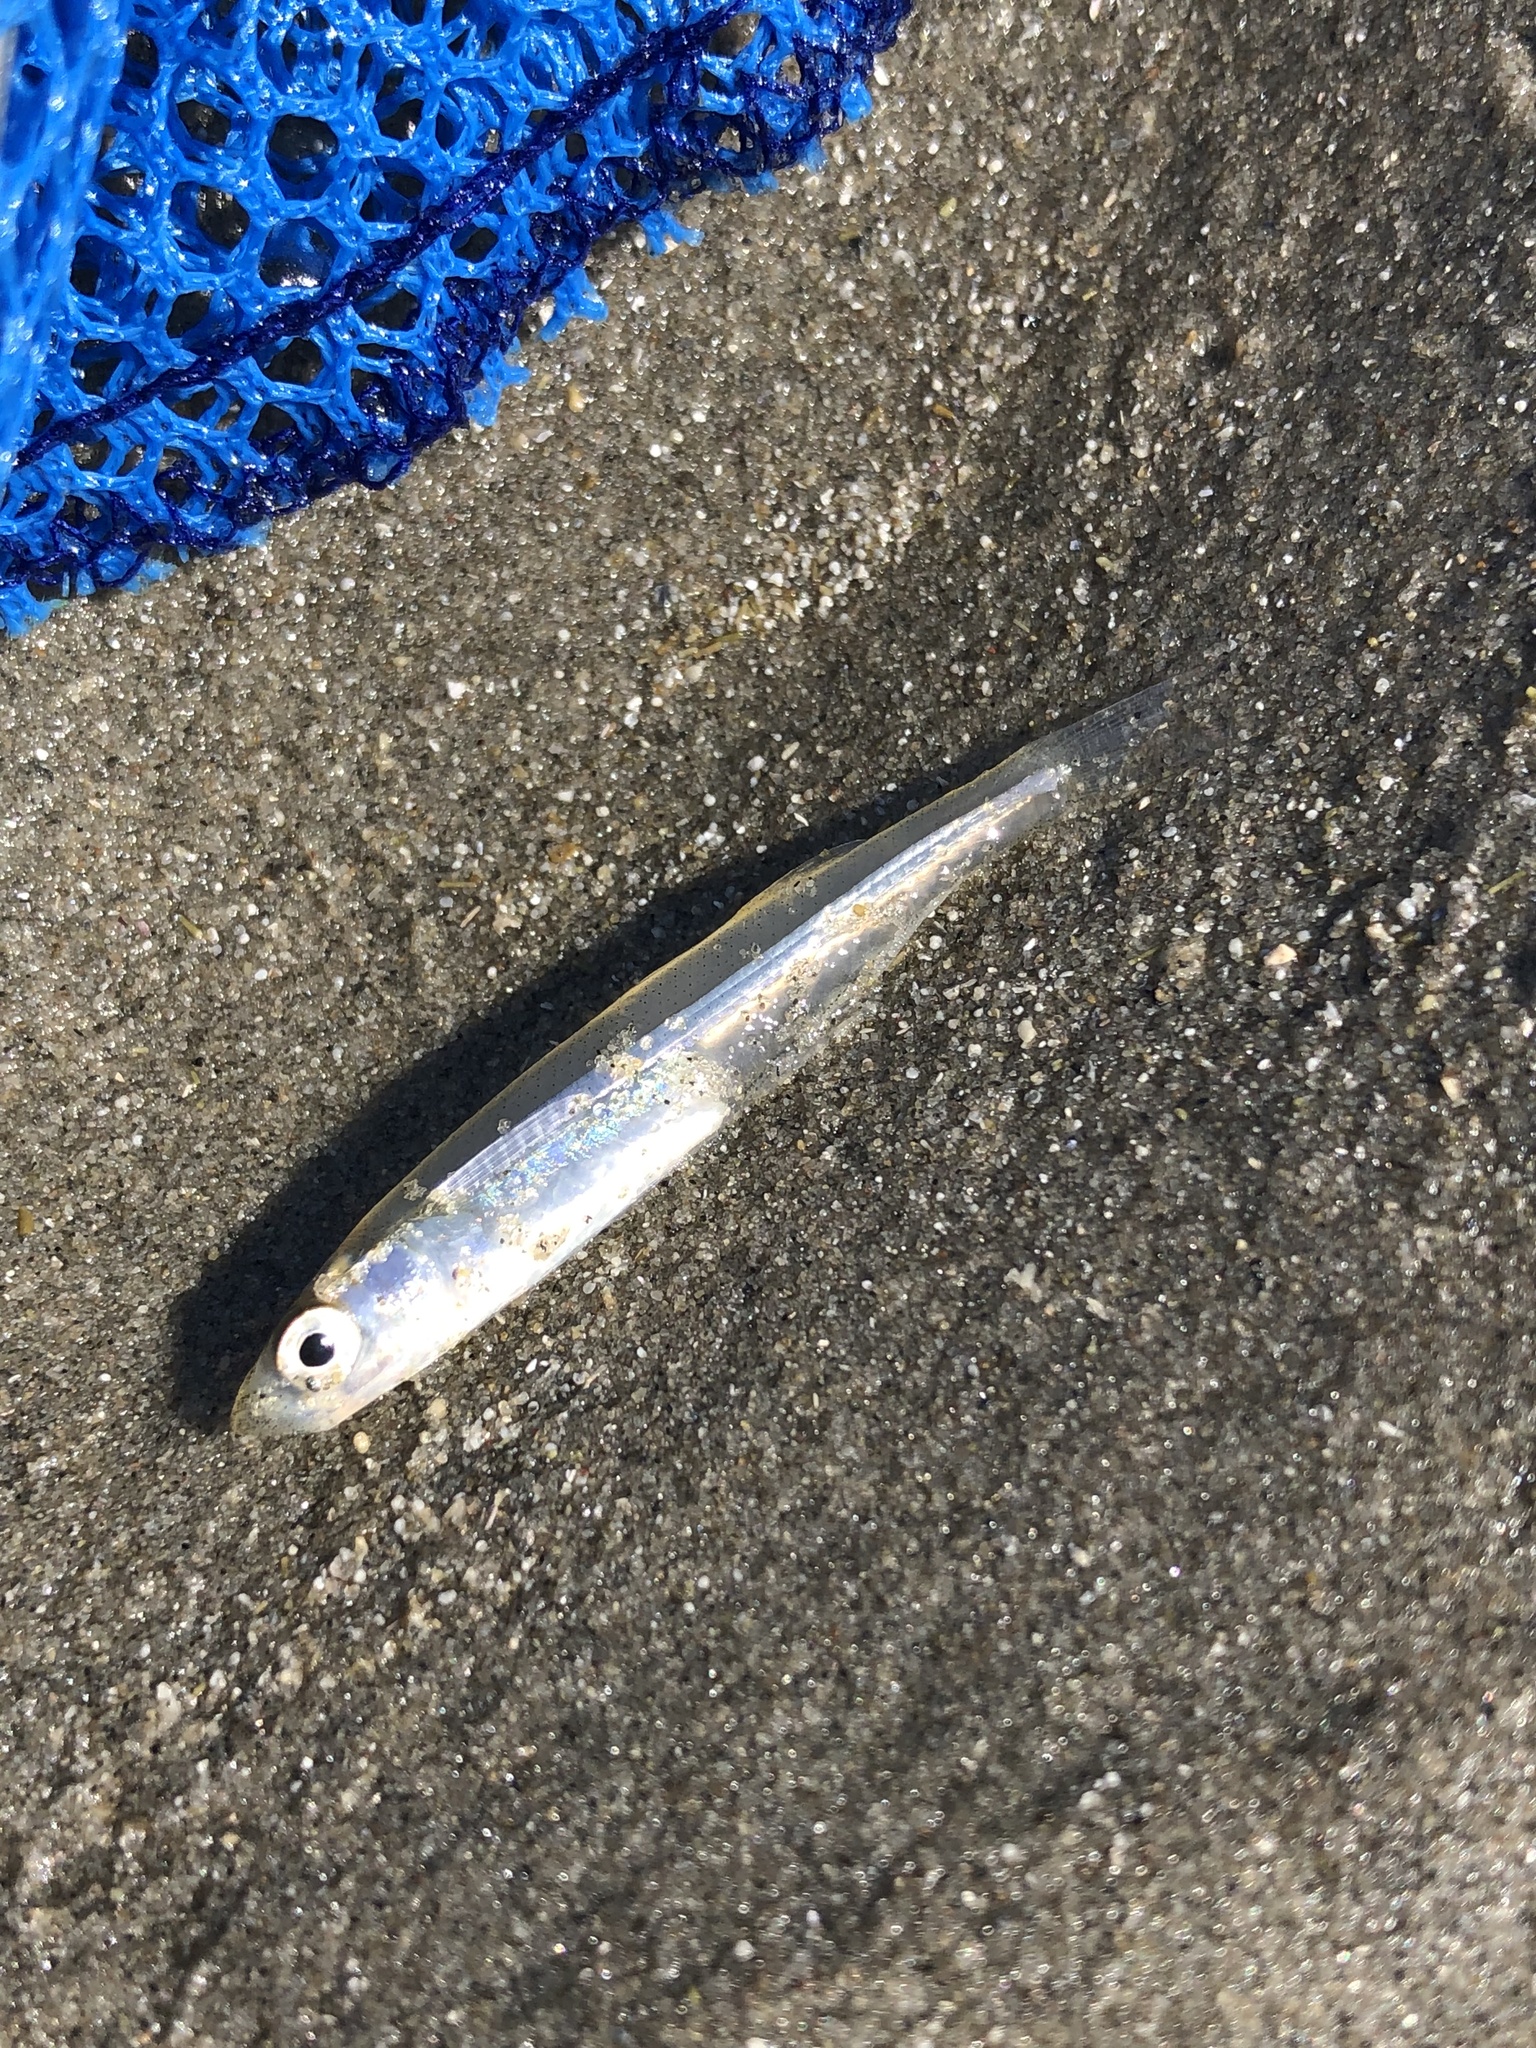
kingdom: Animalia
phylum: Chordata
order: Atheriniformes
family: Atherinopsidae
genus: Menidia
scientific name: Menidia menidia
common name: Atlantic silverside
